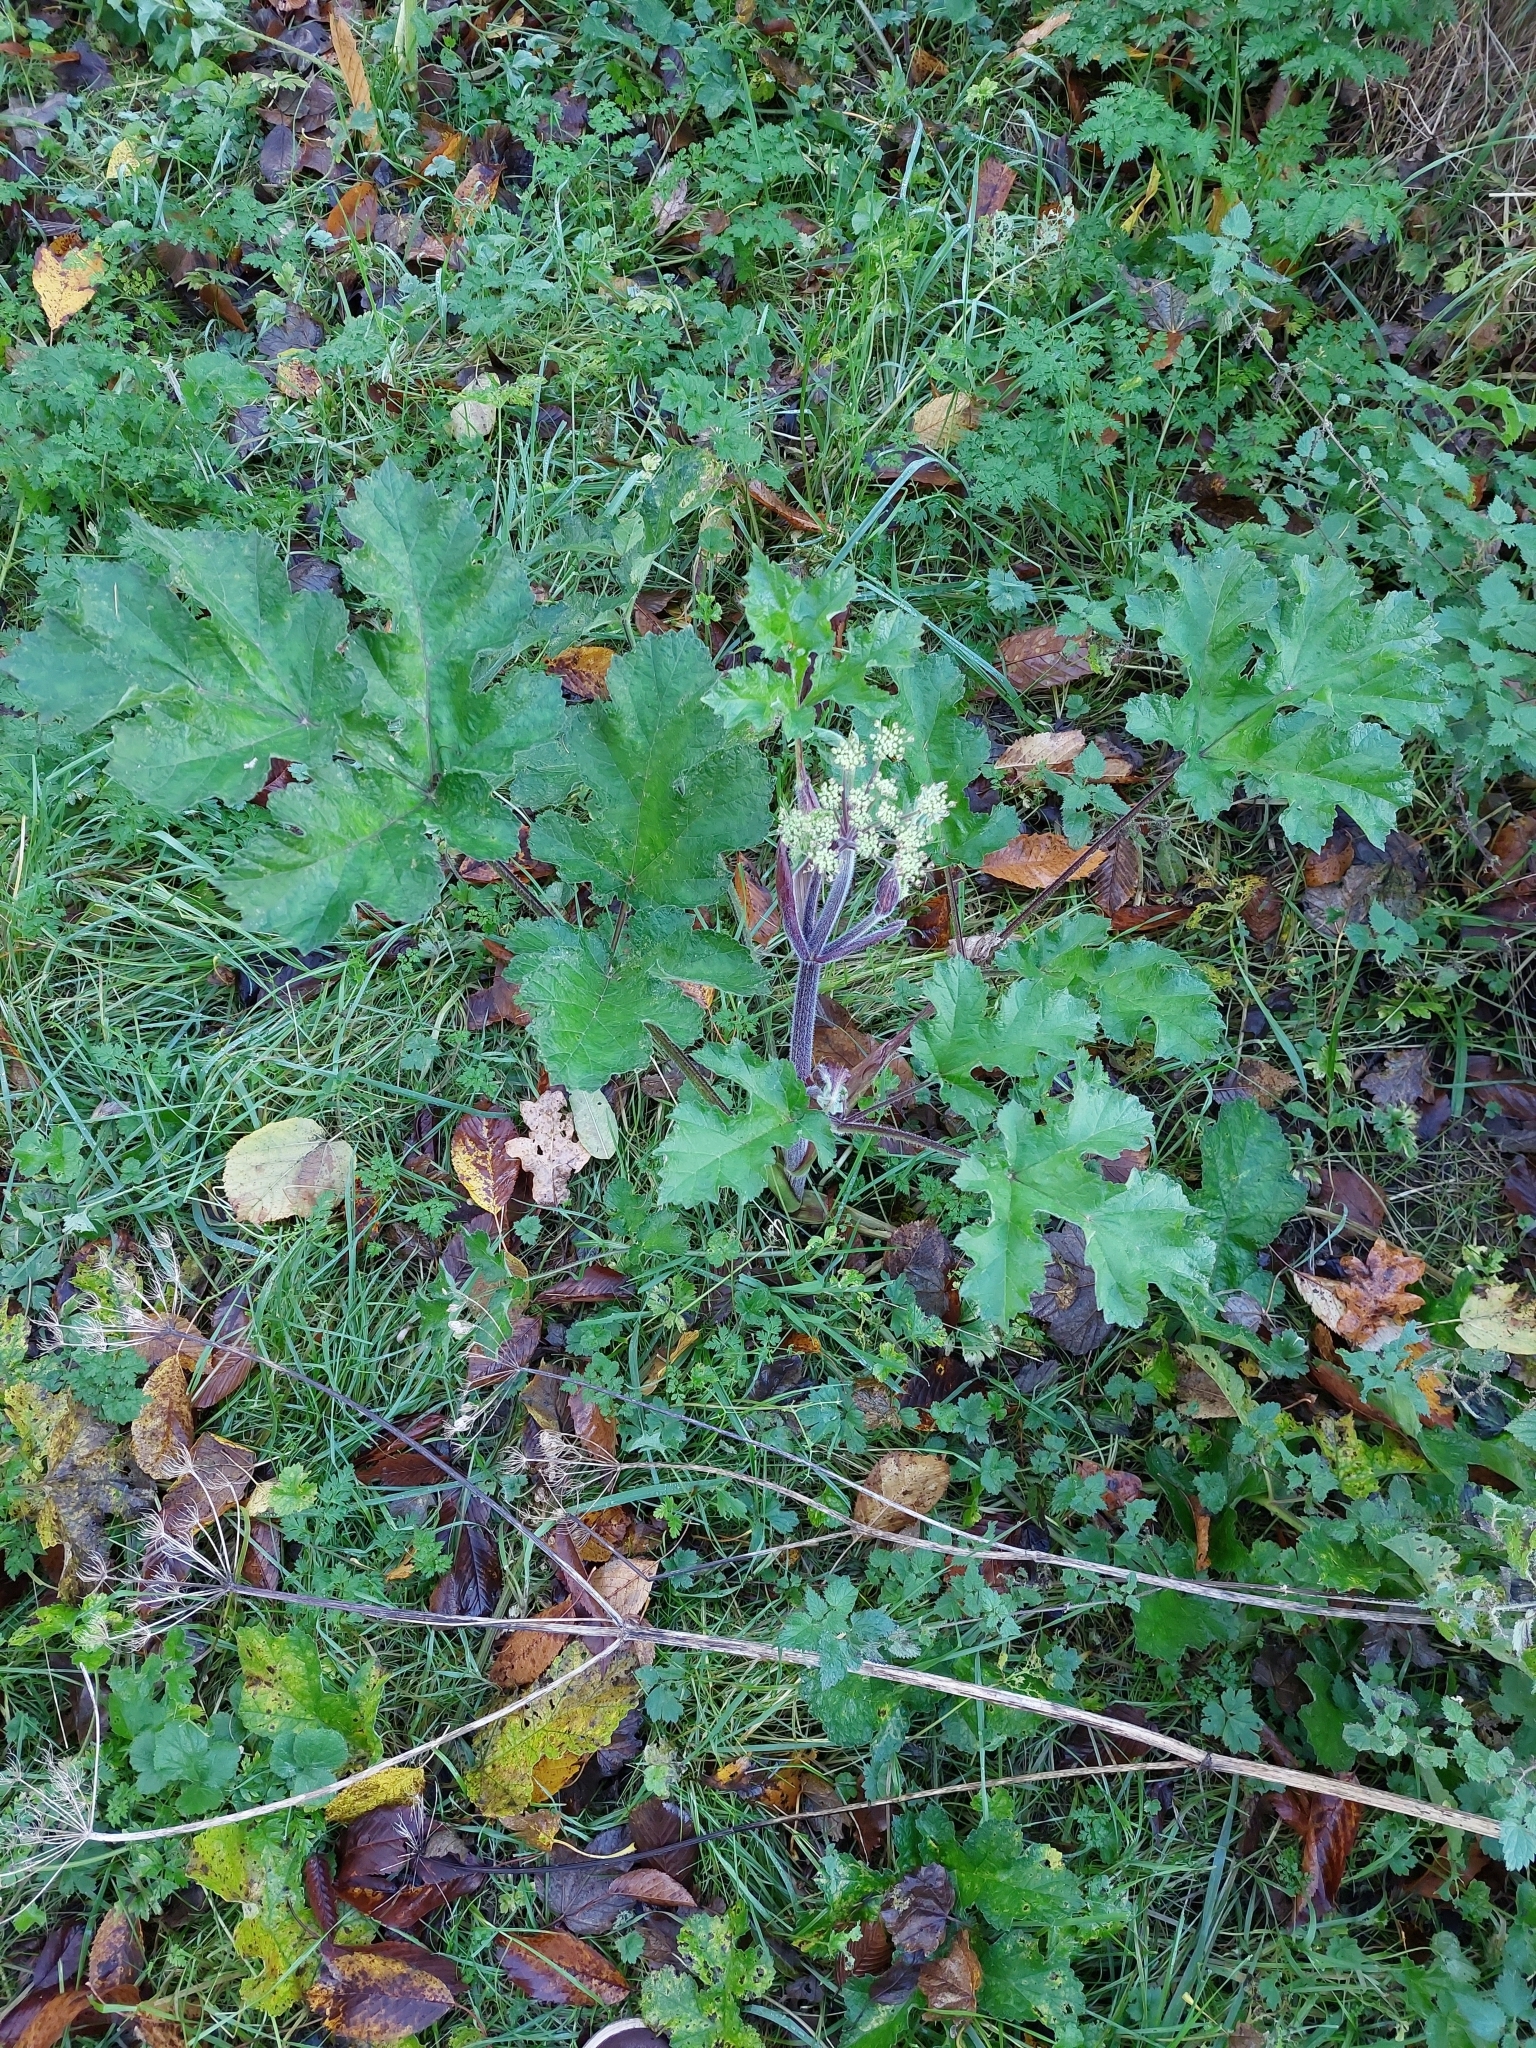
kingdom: Plantae
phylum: Tracheophyta
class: Magnoliopsida
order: Apiales
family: Apiaceae
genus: Heracleum
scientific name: Heracleum sphondylium
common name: Hogweed
